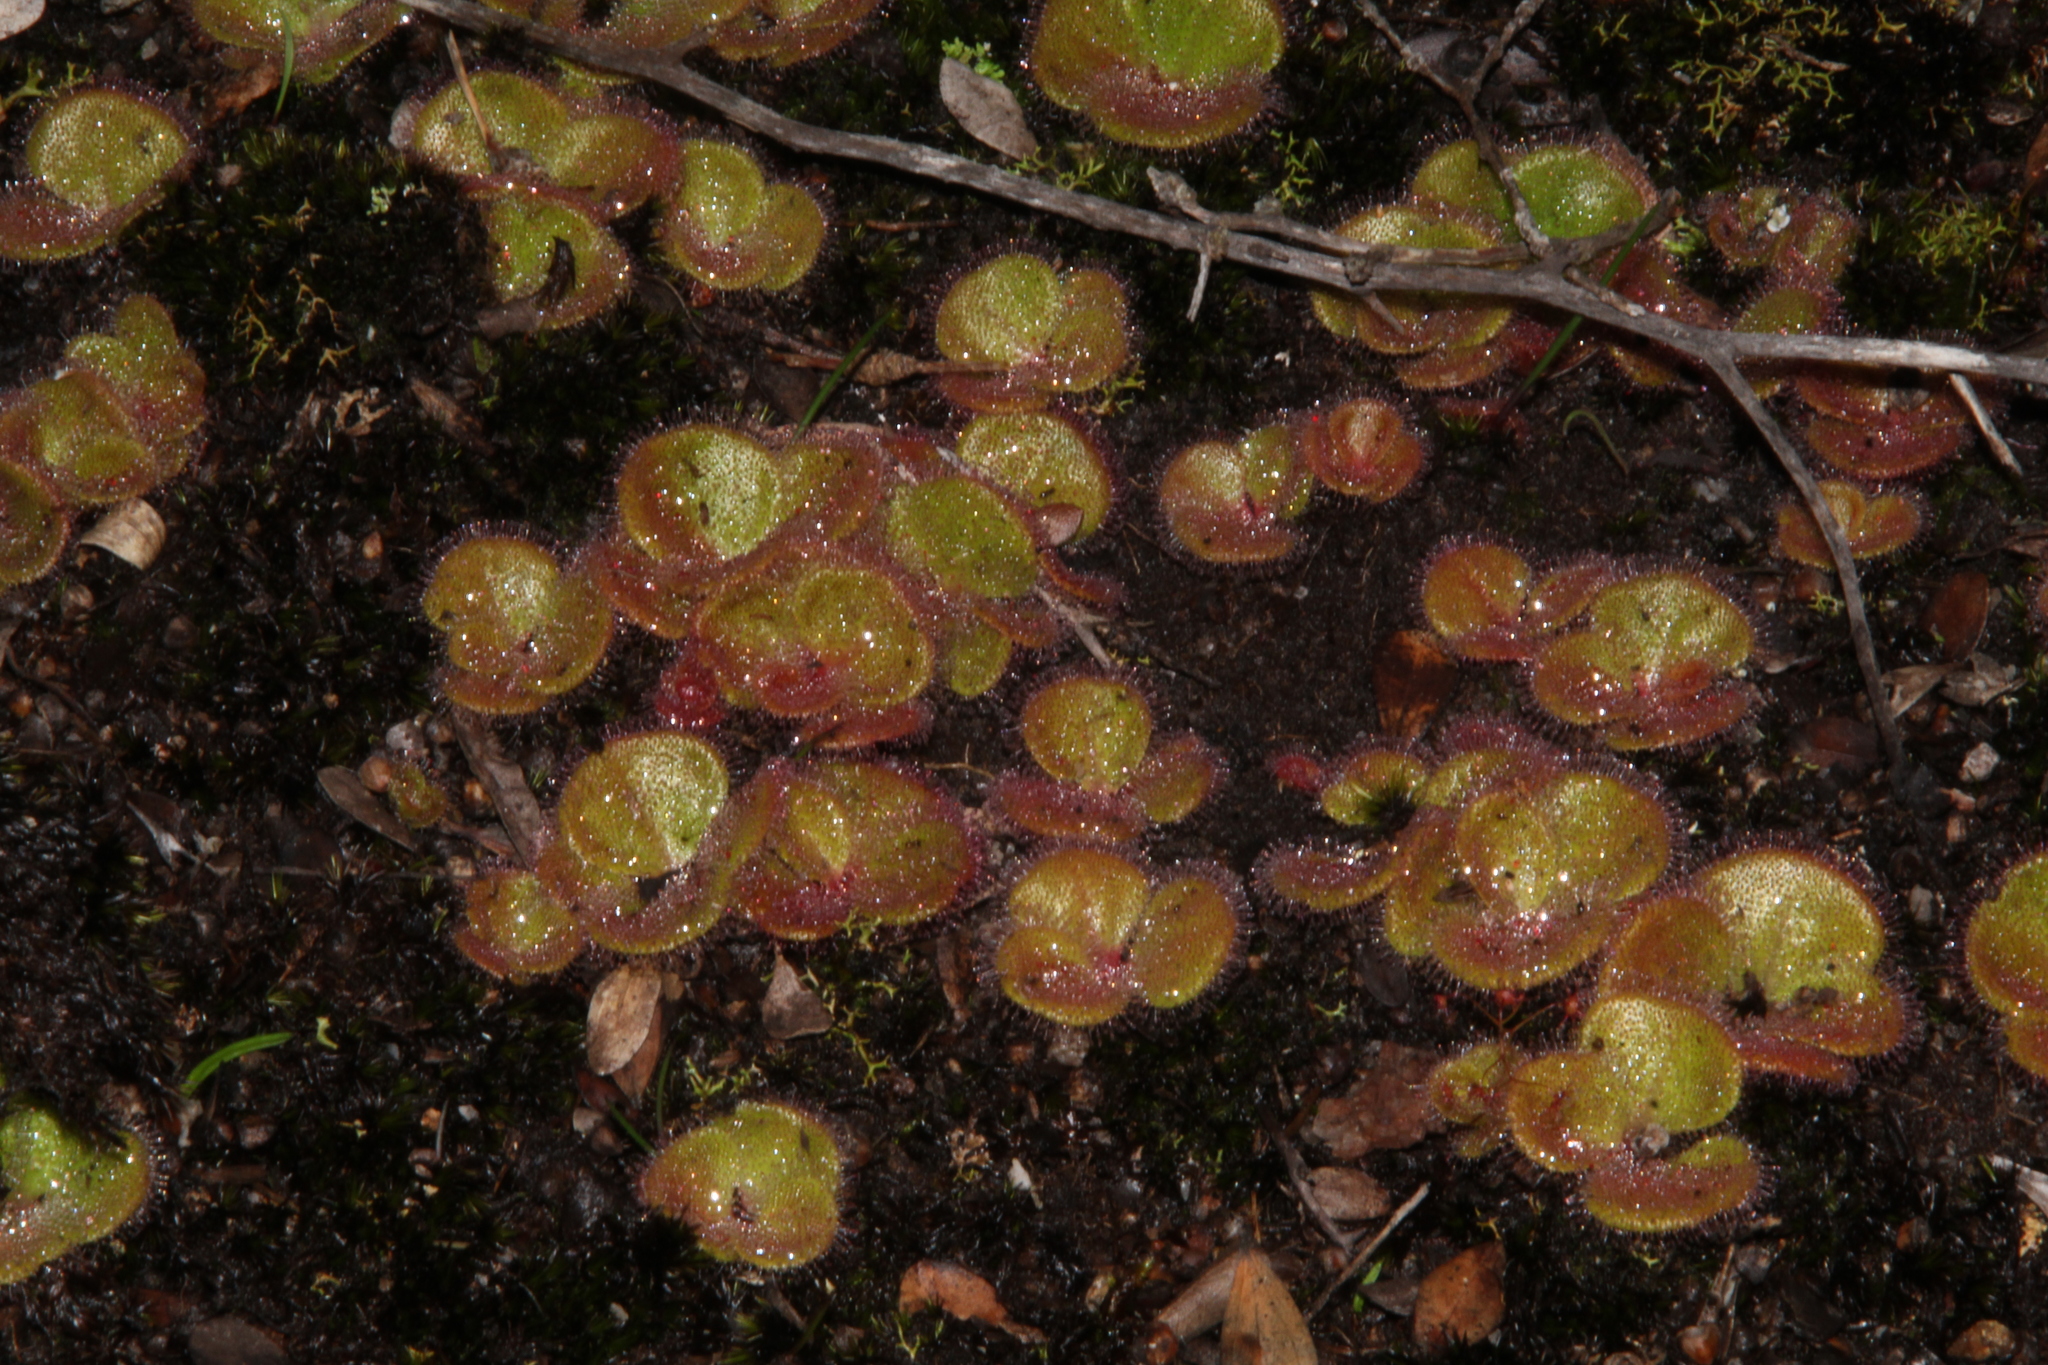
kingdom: Plantae
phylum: Tracheophyta
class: Magnoliopsida
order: Caryophyllales
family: Droseraceae
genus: Drosera
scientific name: Drosera erythrorhiza
